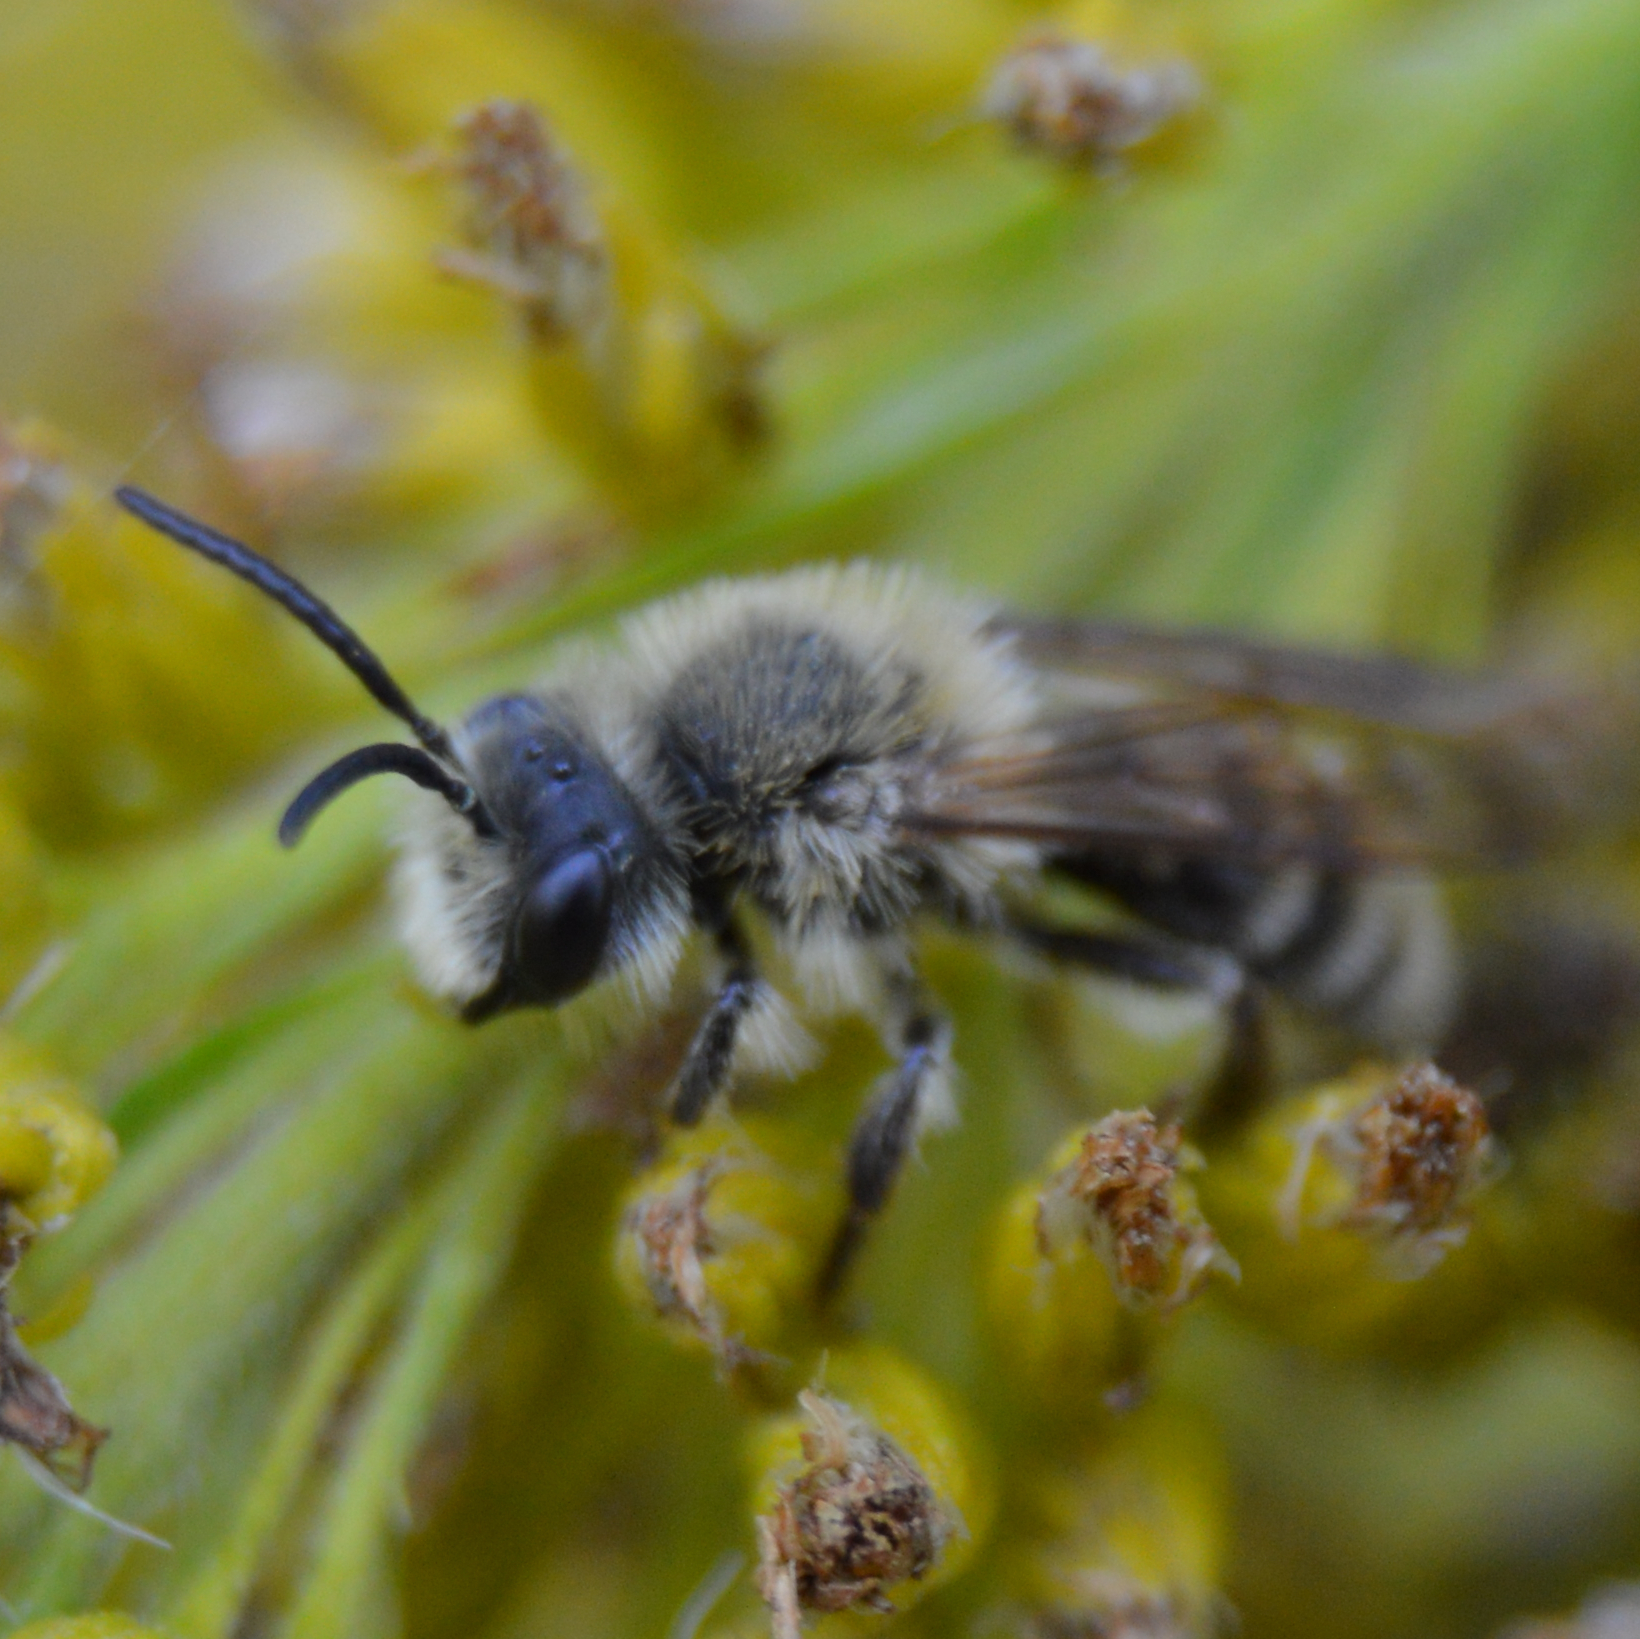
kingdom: Animalia
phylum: Arthropoda
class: Insecta
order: Hymenoptera
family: Andrenidae
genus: Andrena
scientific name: Andrena hirticincta
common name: Hairy-banded mining bee
